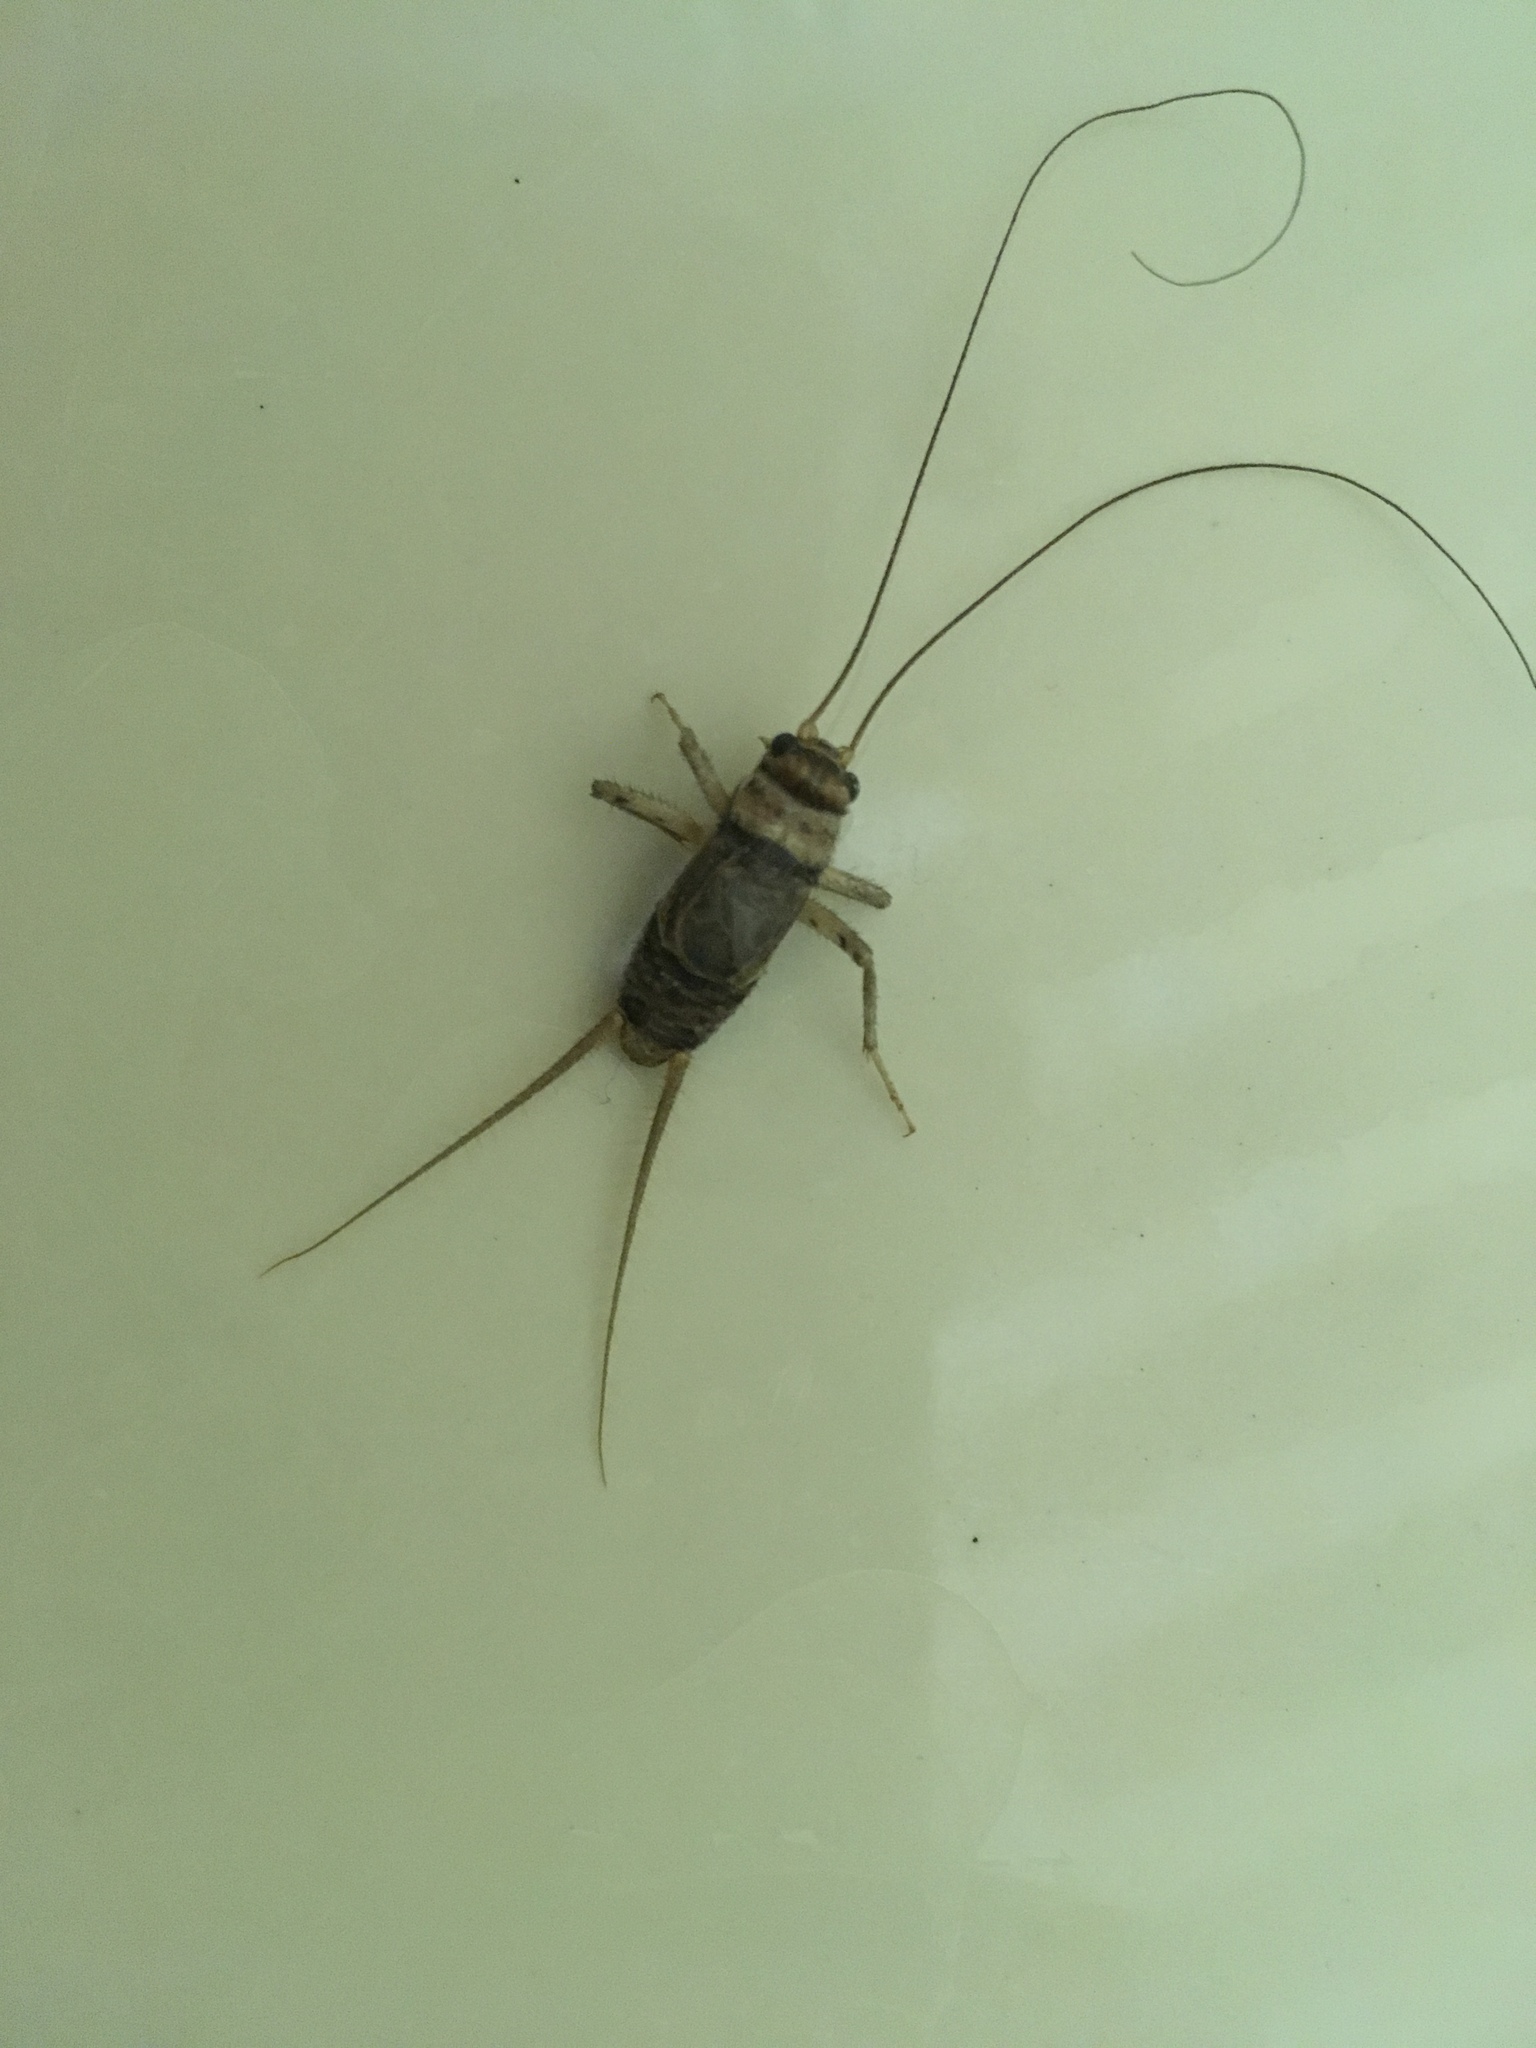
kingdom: Animalia
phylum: Arthropoda
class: Insecta
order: Orthoptera
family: Gryllidae
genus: Gryllodes
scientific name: Gryllodes sigillatus
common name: Tropical house cricket
